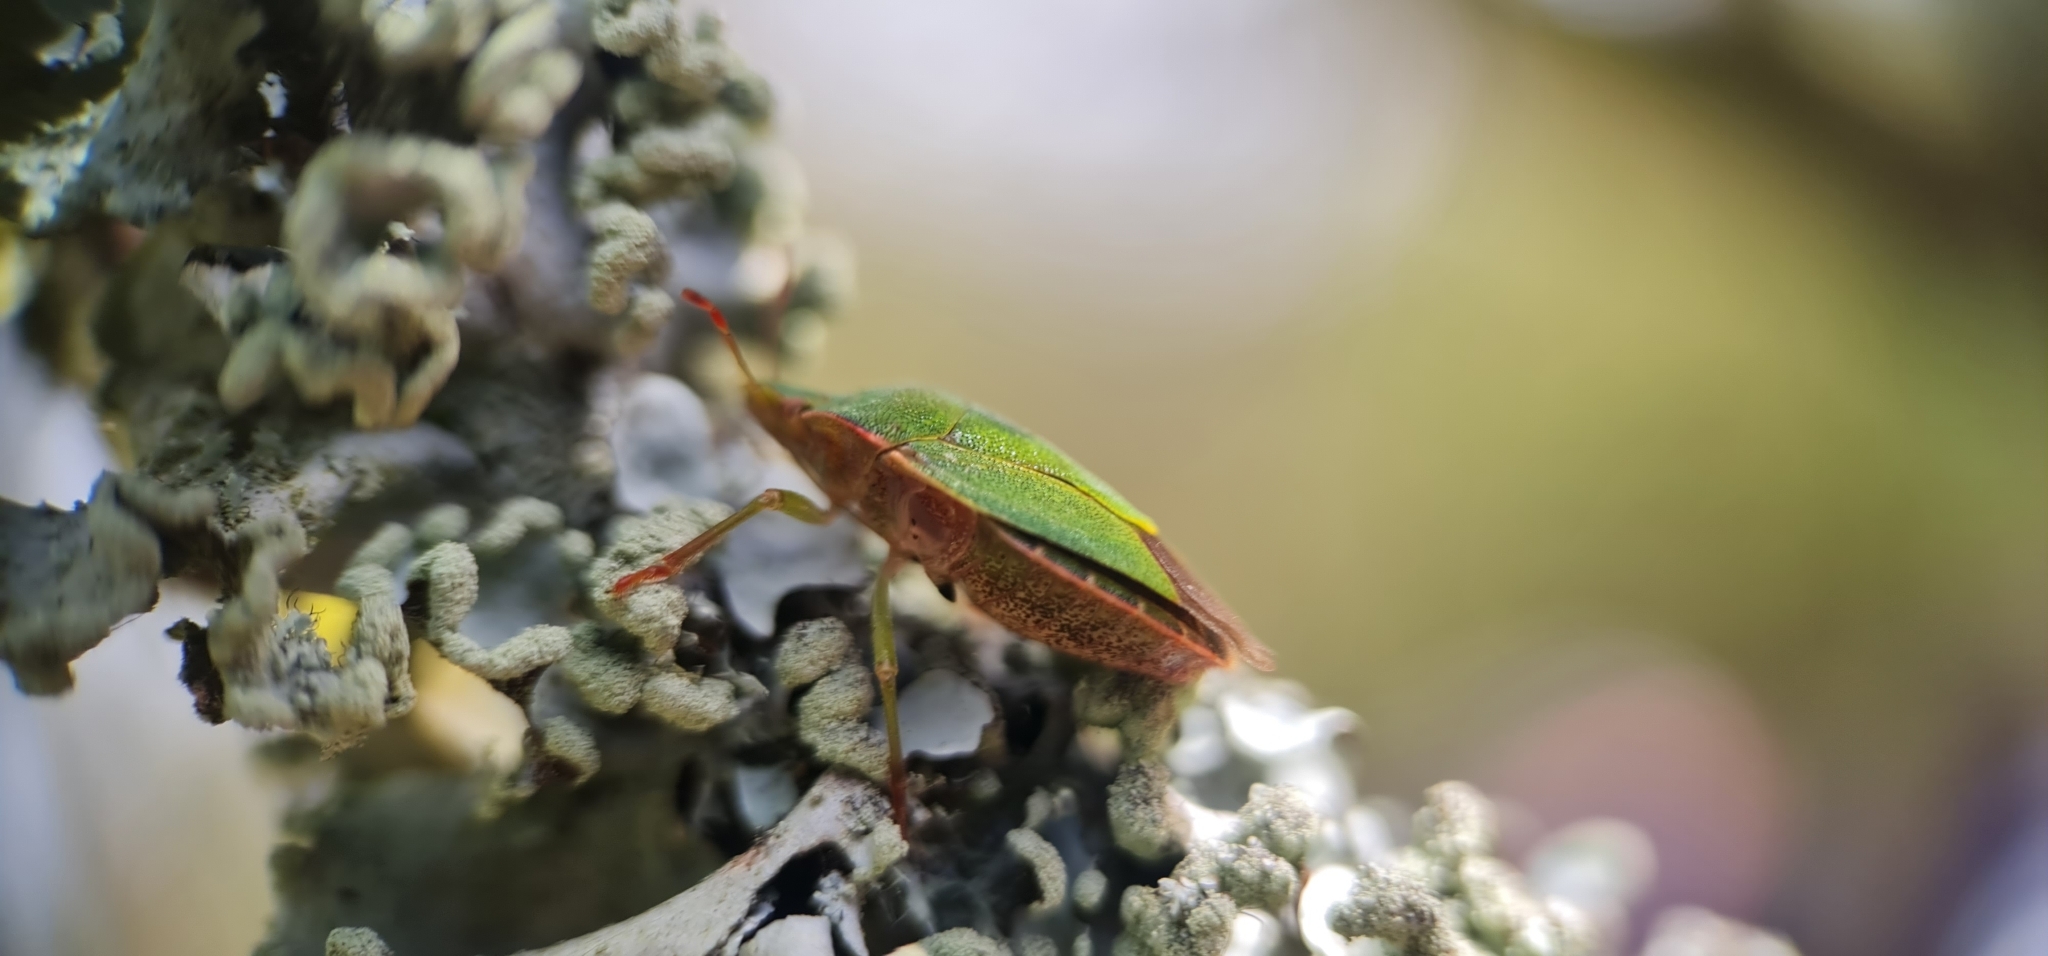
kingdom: Animalia
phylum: Arthropoda
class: Insecta
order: Hemiptera
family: Pentatomidae
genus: Palomena
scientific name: Palomena prasina
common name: Green shieldbug
